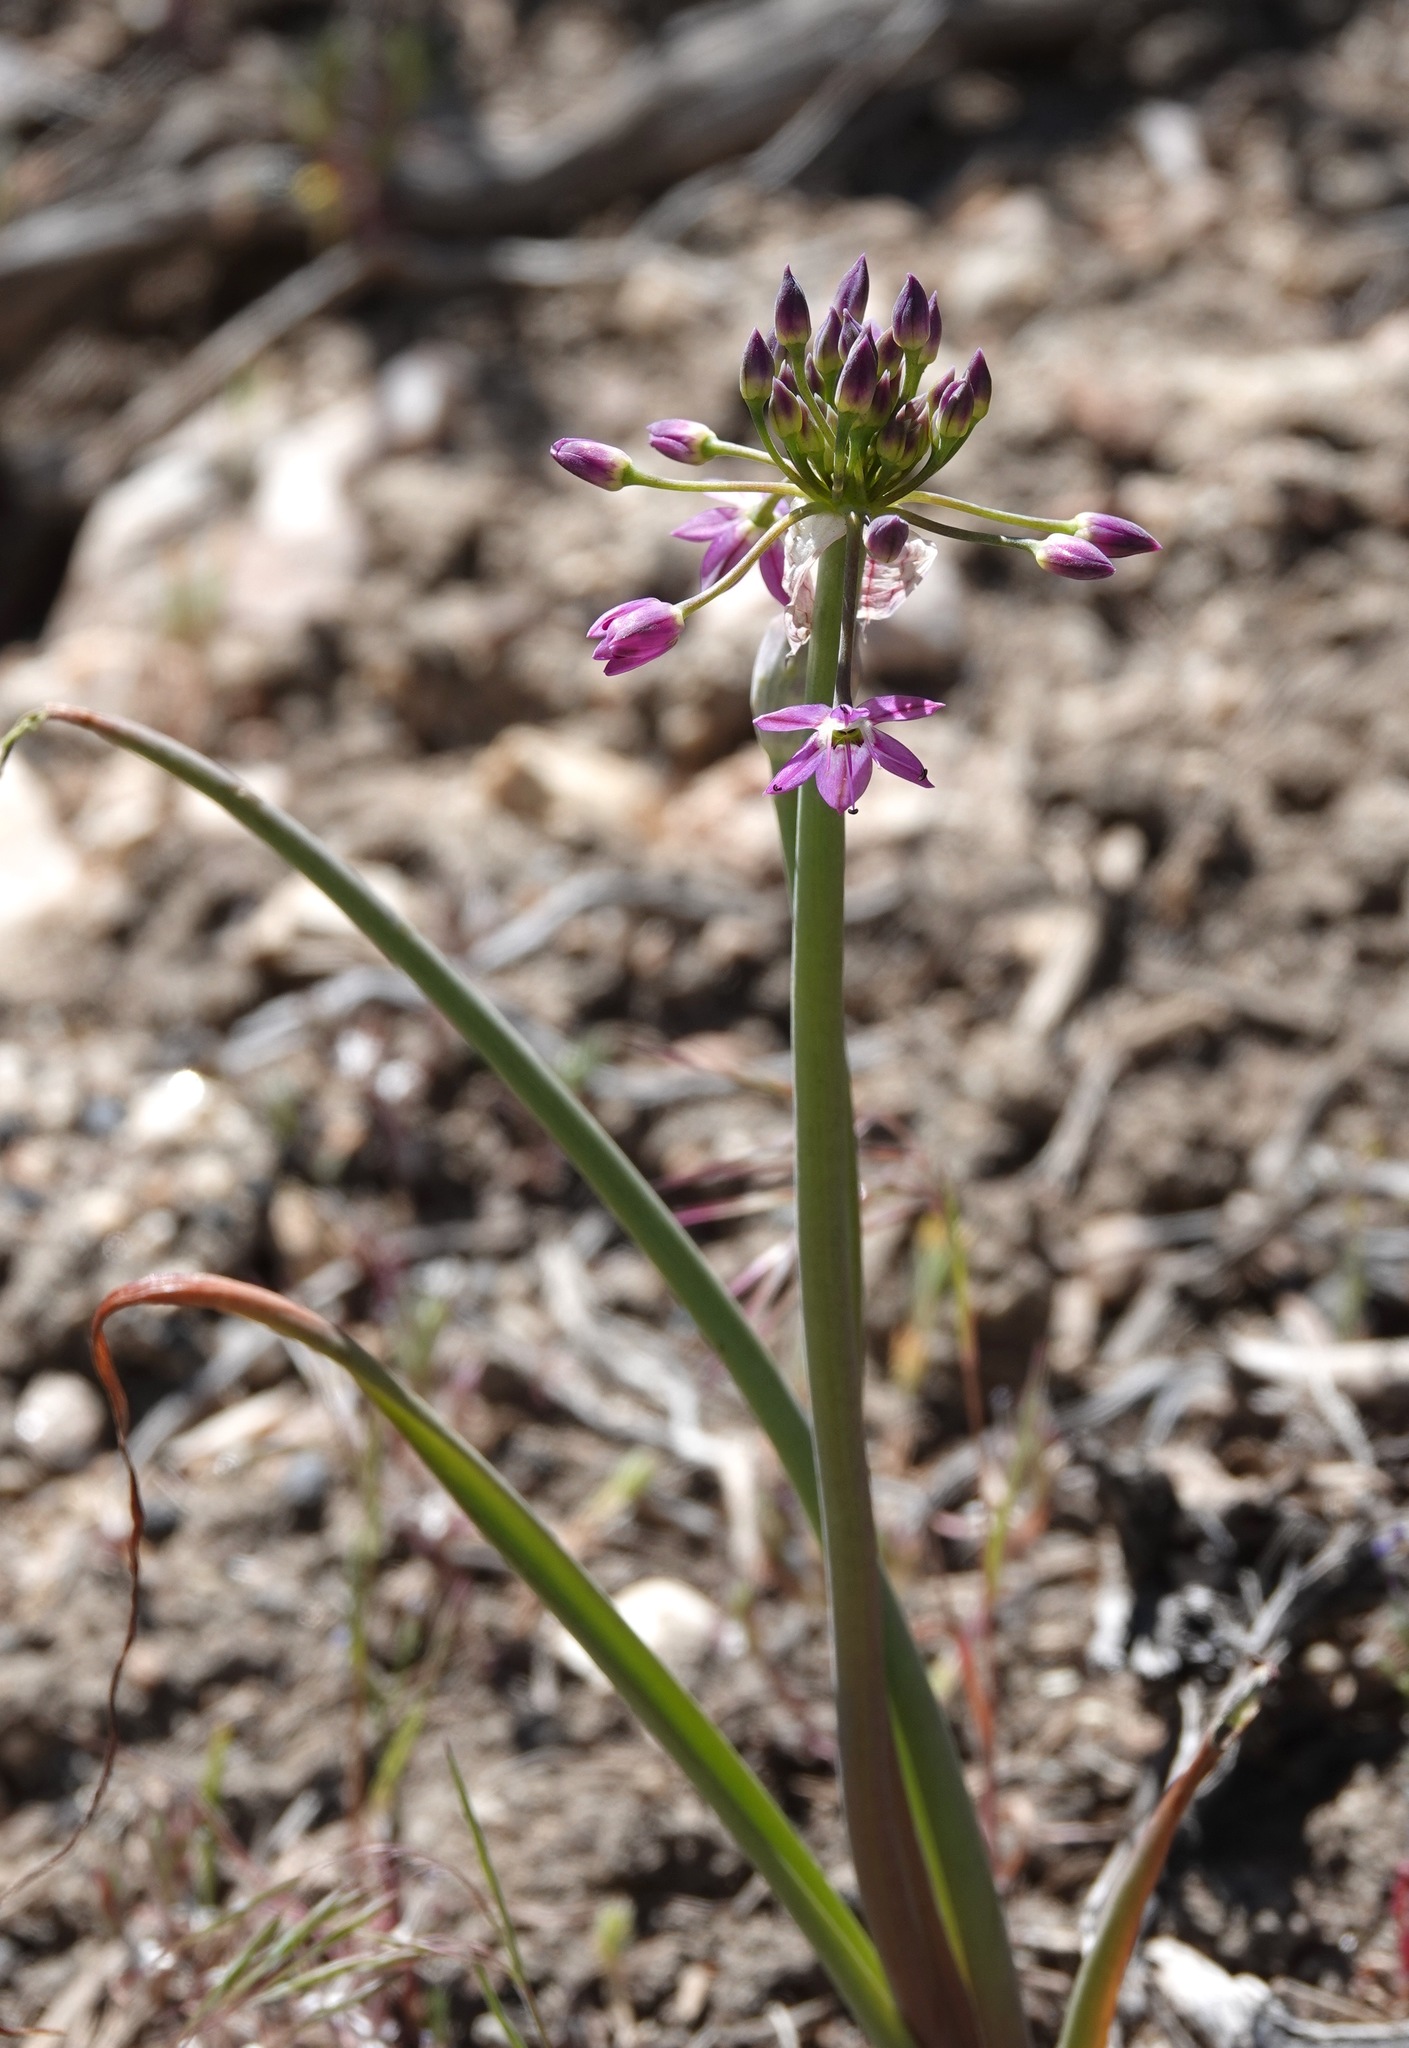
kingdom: Plantae
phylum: Tracheophyta
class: Liliopsida
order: Asparagales
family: Amaryllidaceae
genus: Allium
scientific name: Allium campanulatum
